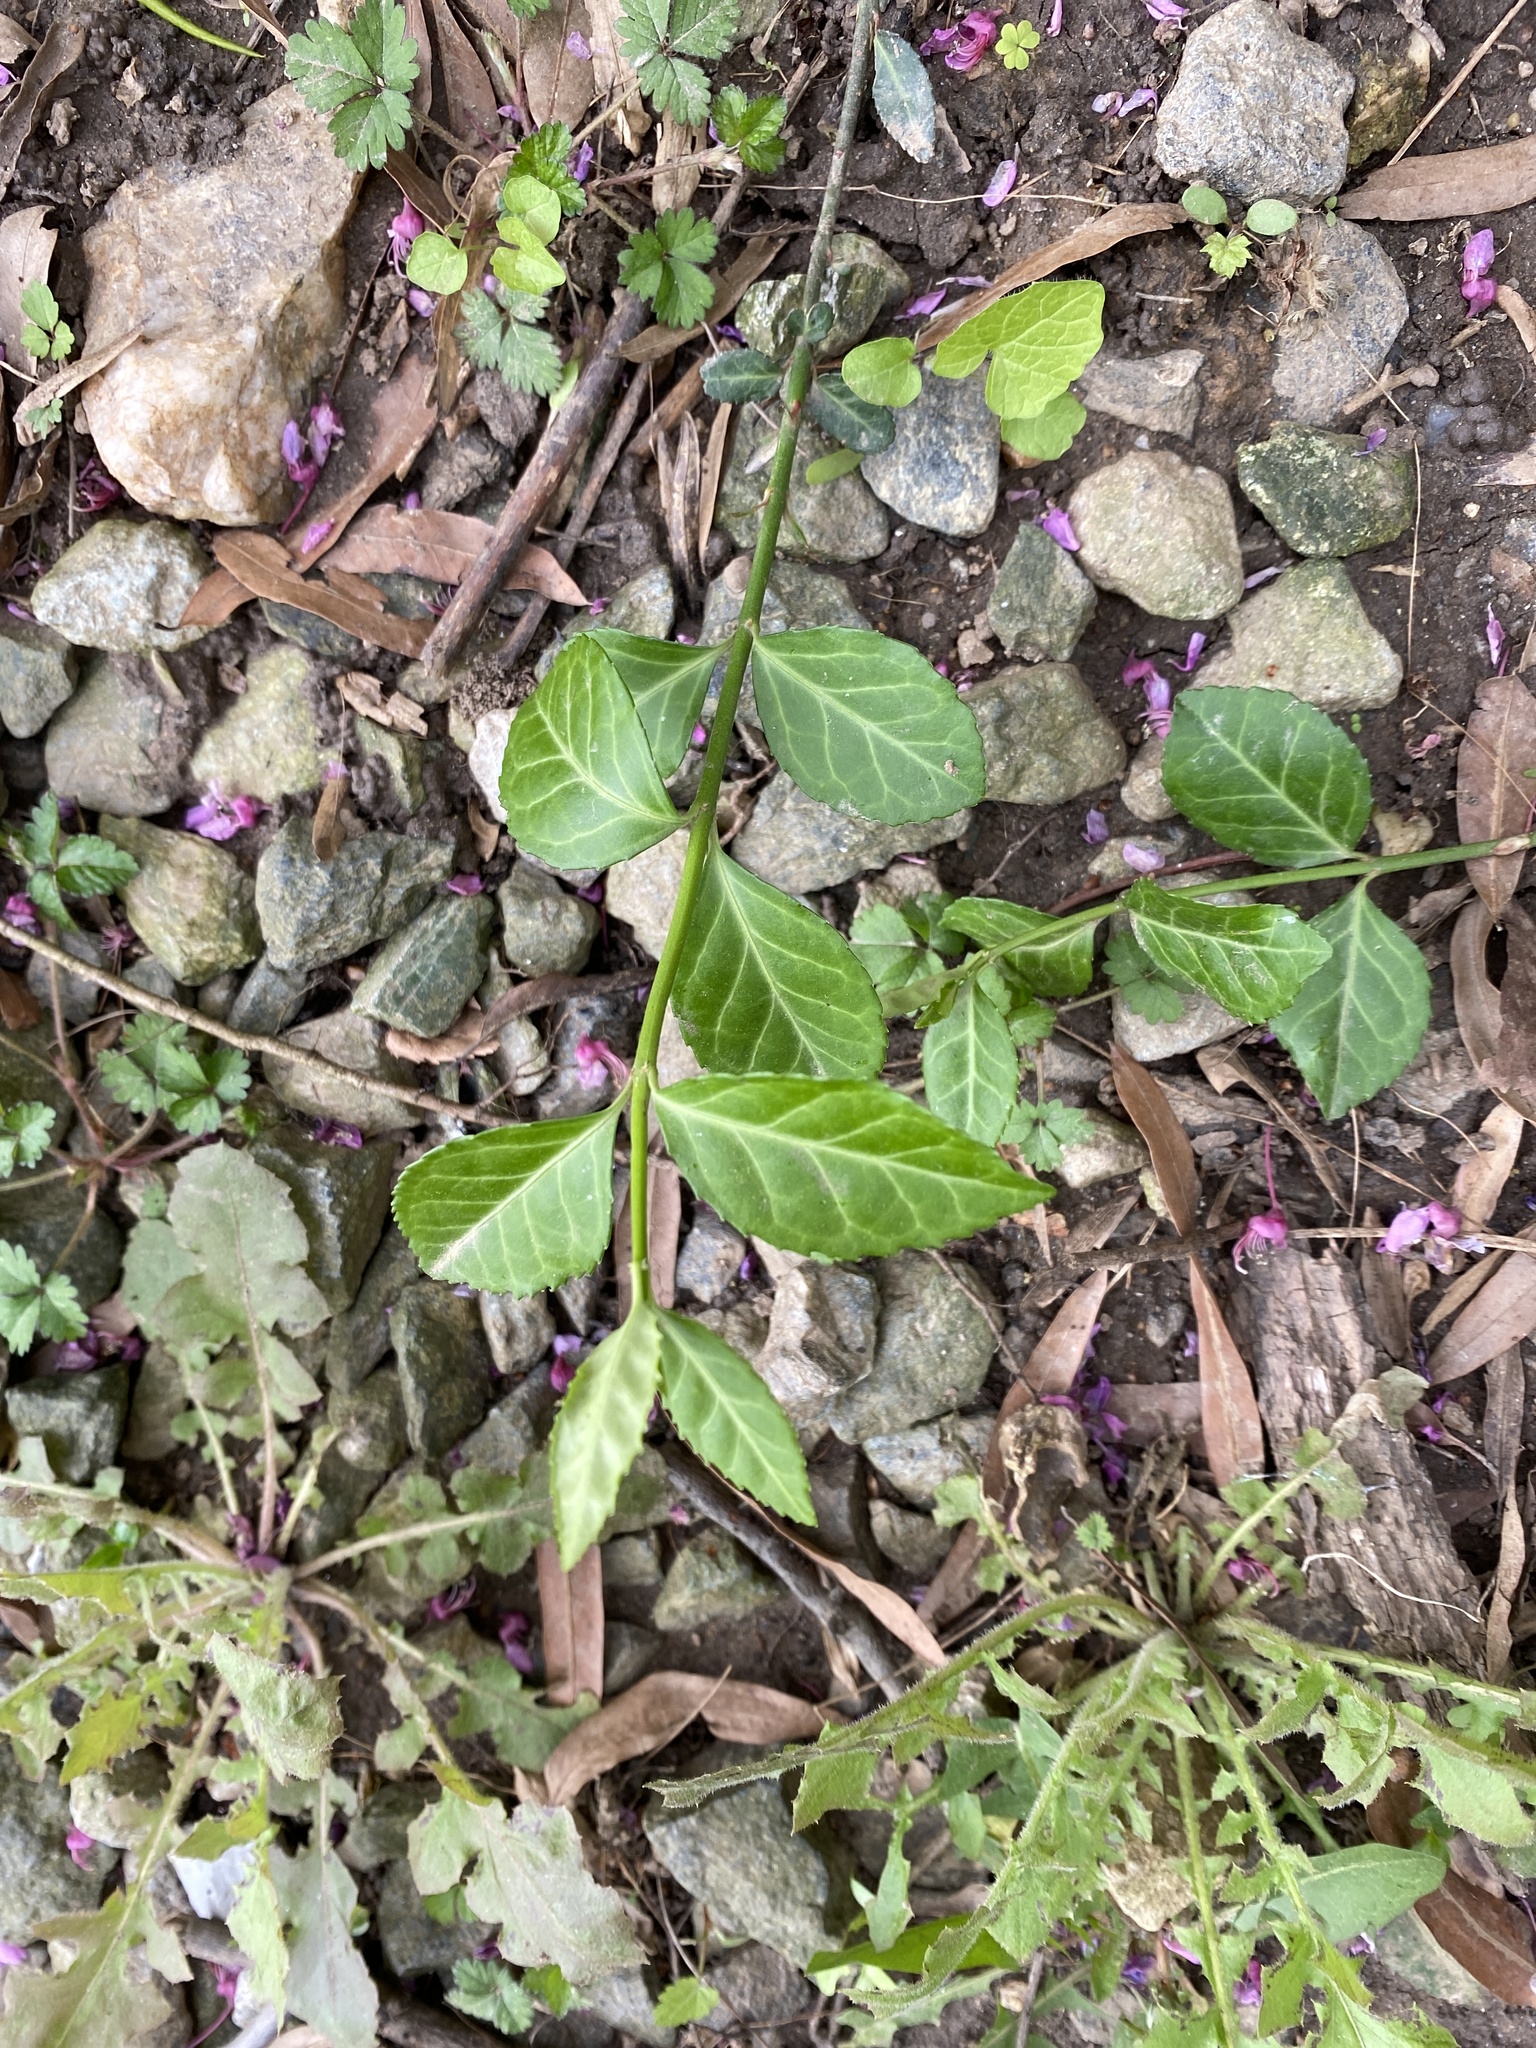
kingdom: Plantae
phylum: Tracheophyta
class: Magnoliopsida
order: Celastrales
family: Celastraceae
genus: Euonymus
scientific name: Euonymus fortunei
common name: Climbing euonymus
